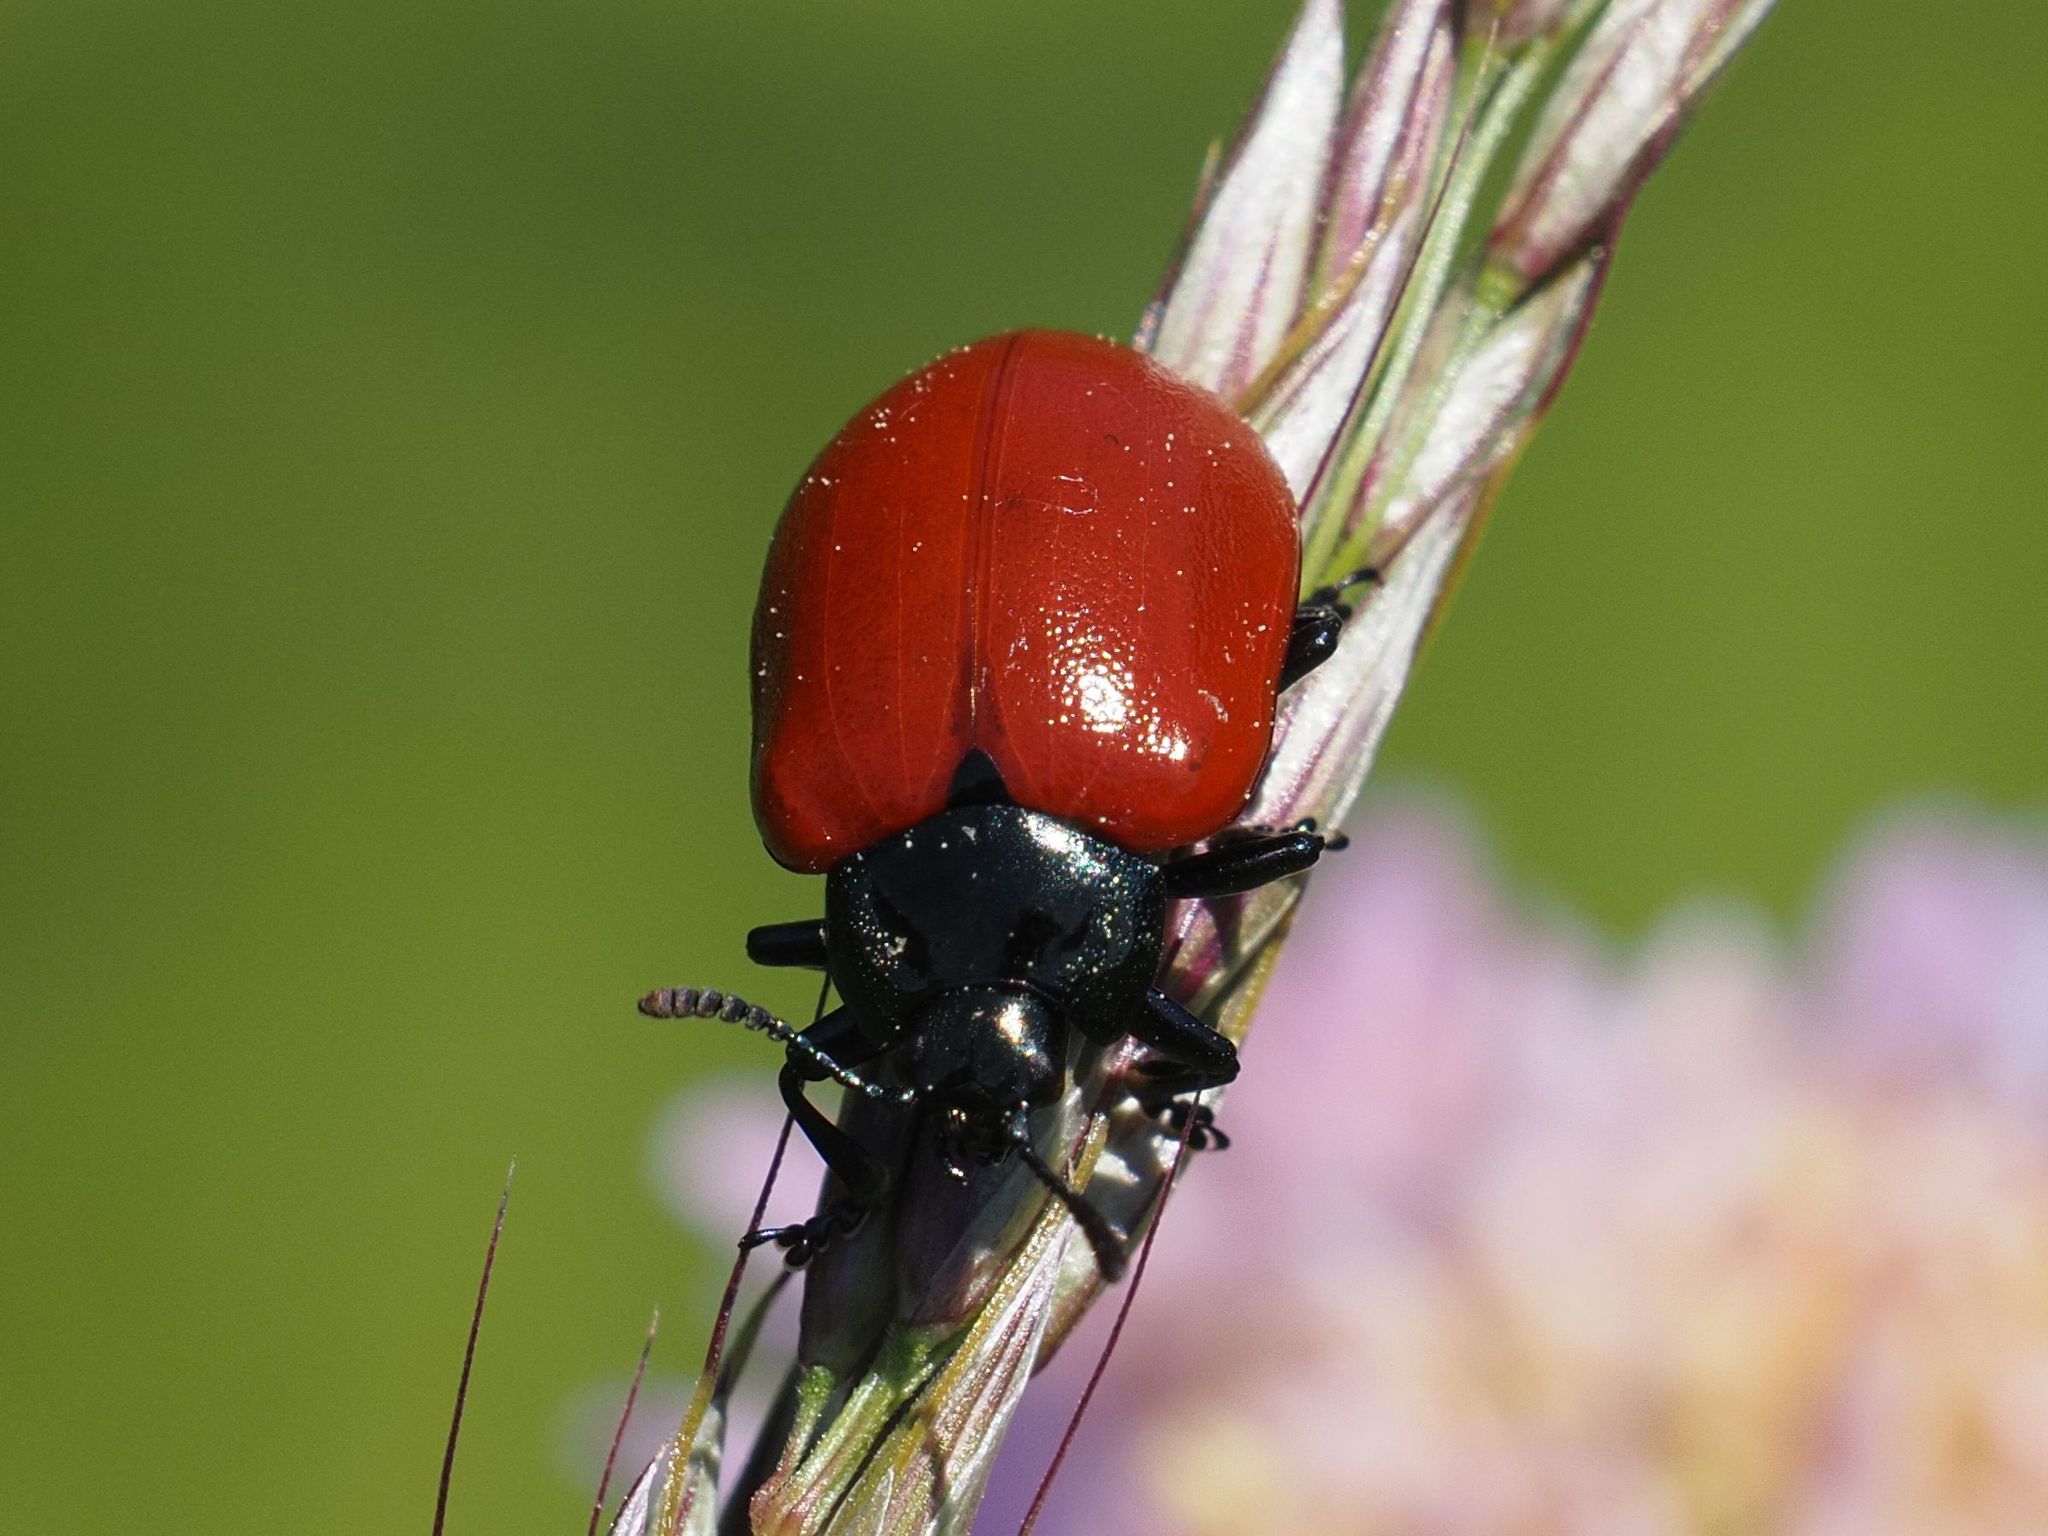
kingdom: Animalia
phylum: Arthropoda
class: Insecta
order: Coleoptera
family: Chrysomelidae
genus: Chrysomela
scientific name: Chrysomela populi
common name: Red poplar leaf beetle
